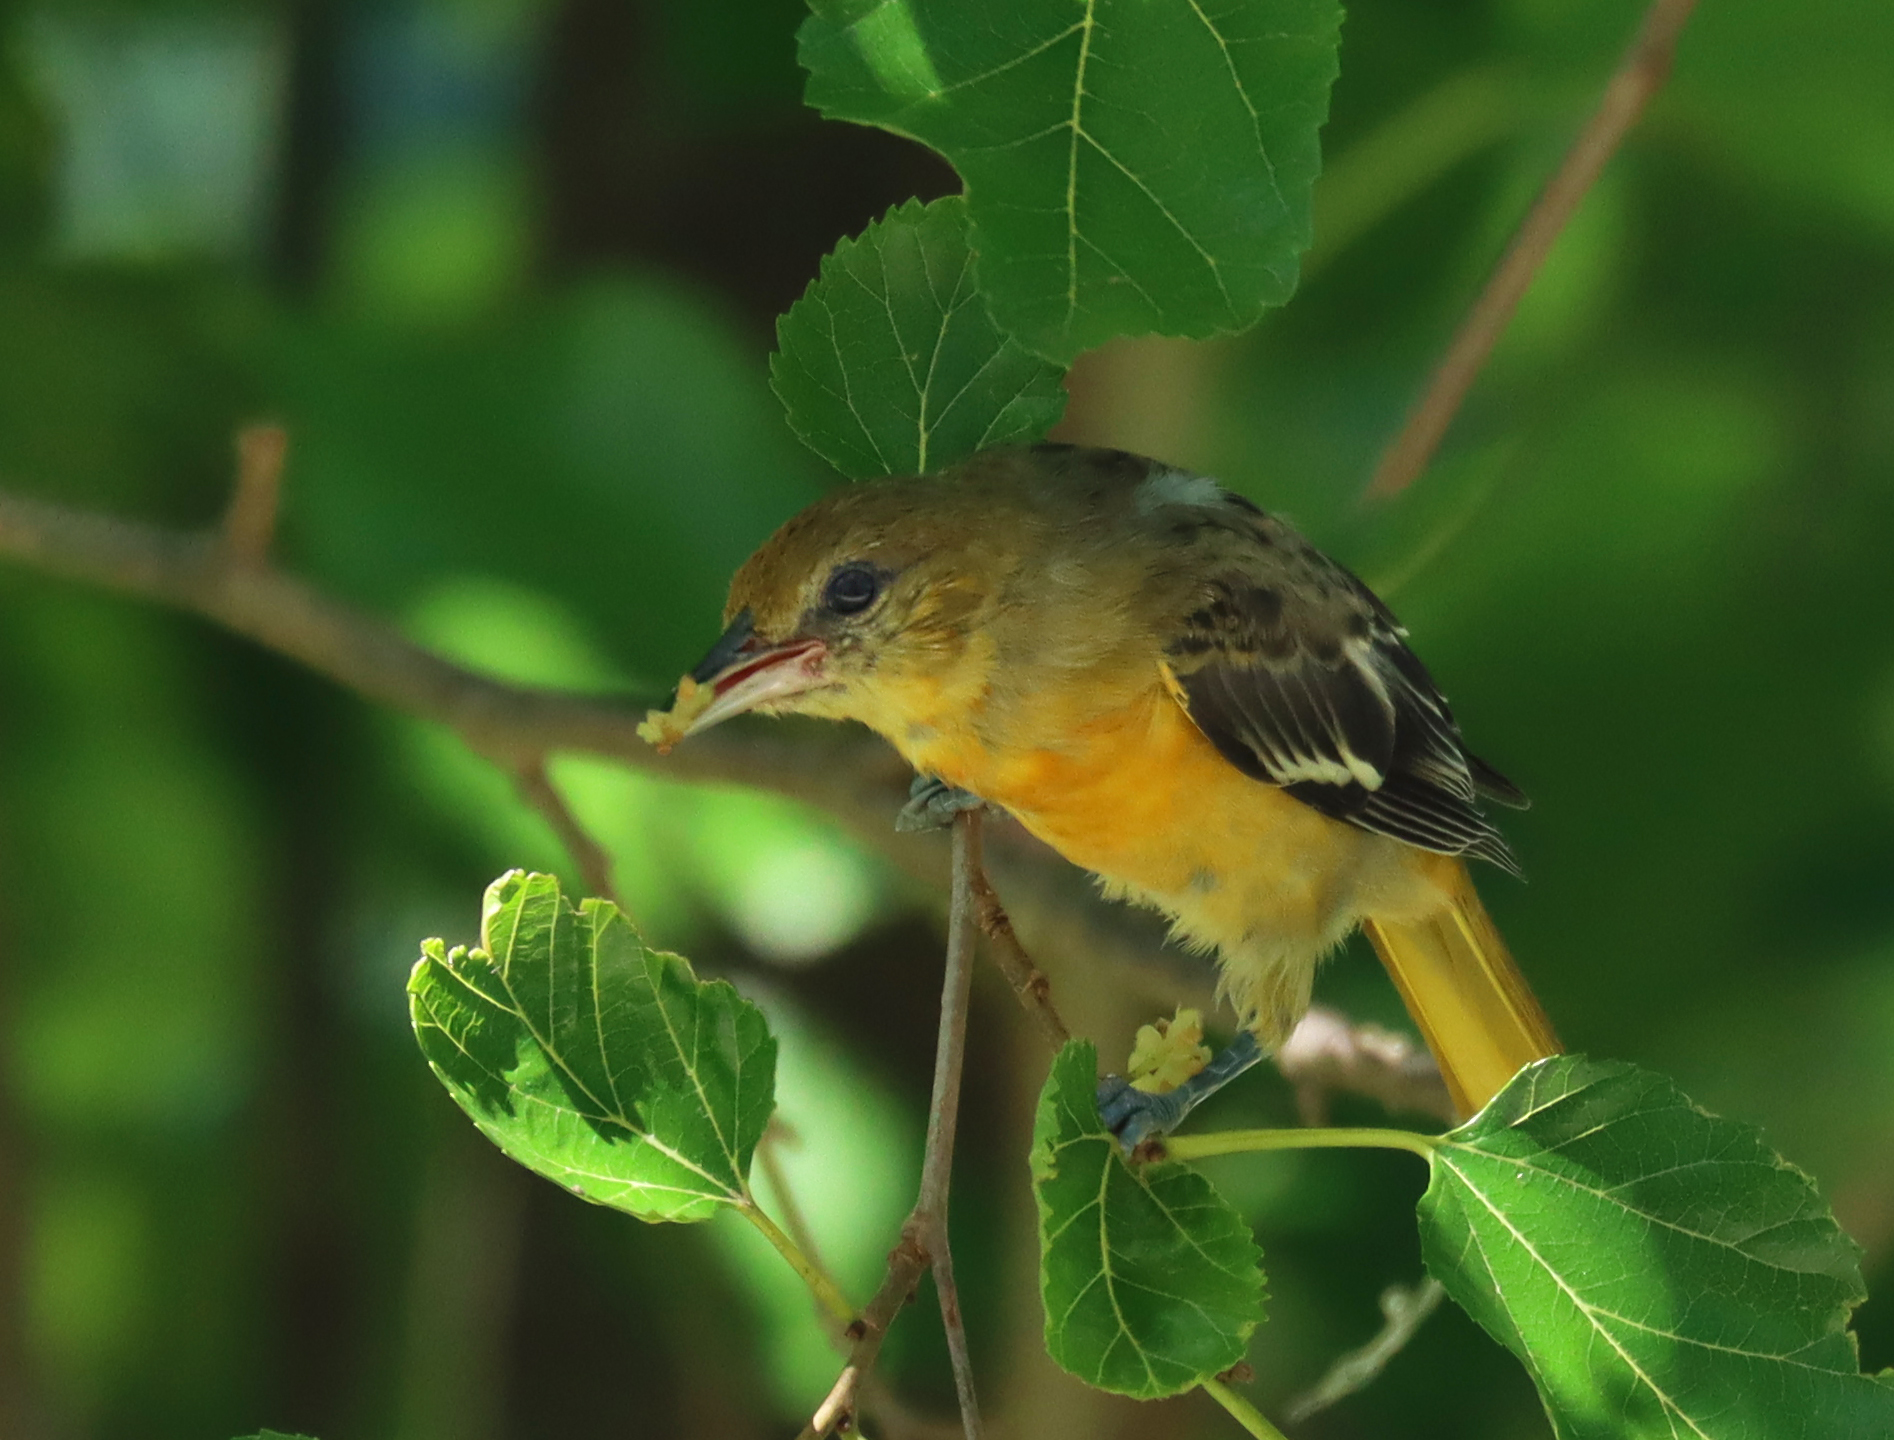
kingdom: Animalia
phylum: Chordata
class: Aves
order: Passeriformes
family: Icteridae
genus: Icterus
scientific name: Icterus galbula
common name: Baltimore oriole
